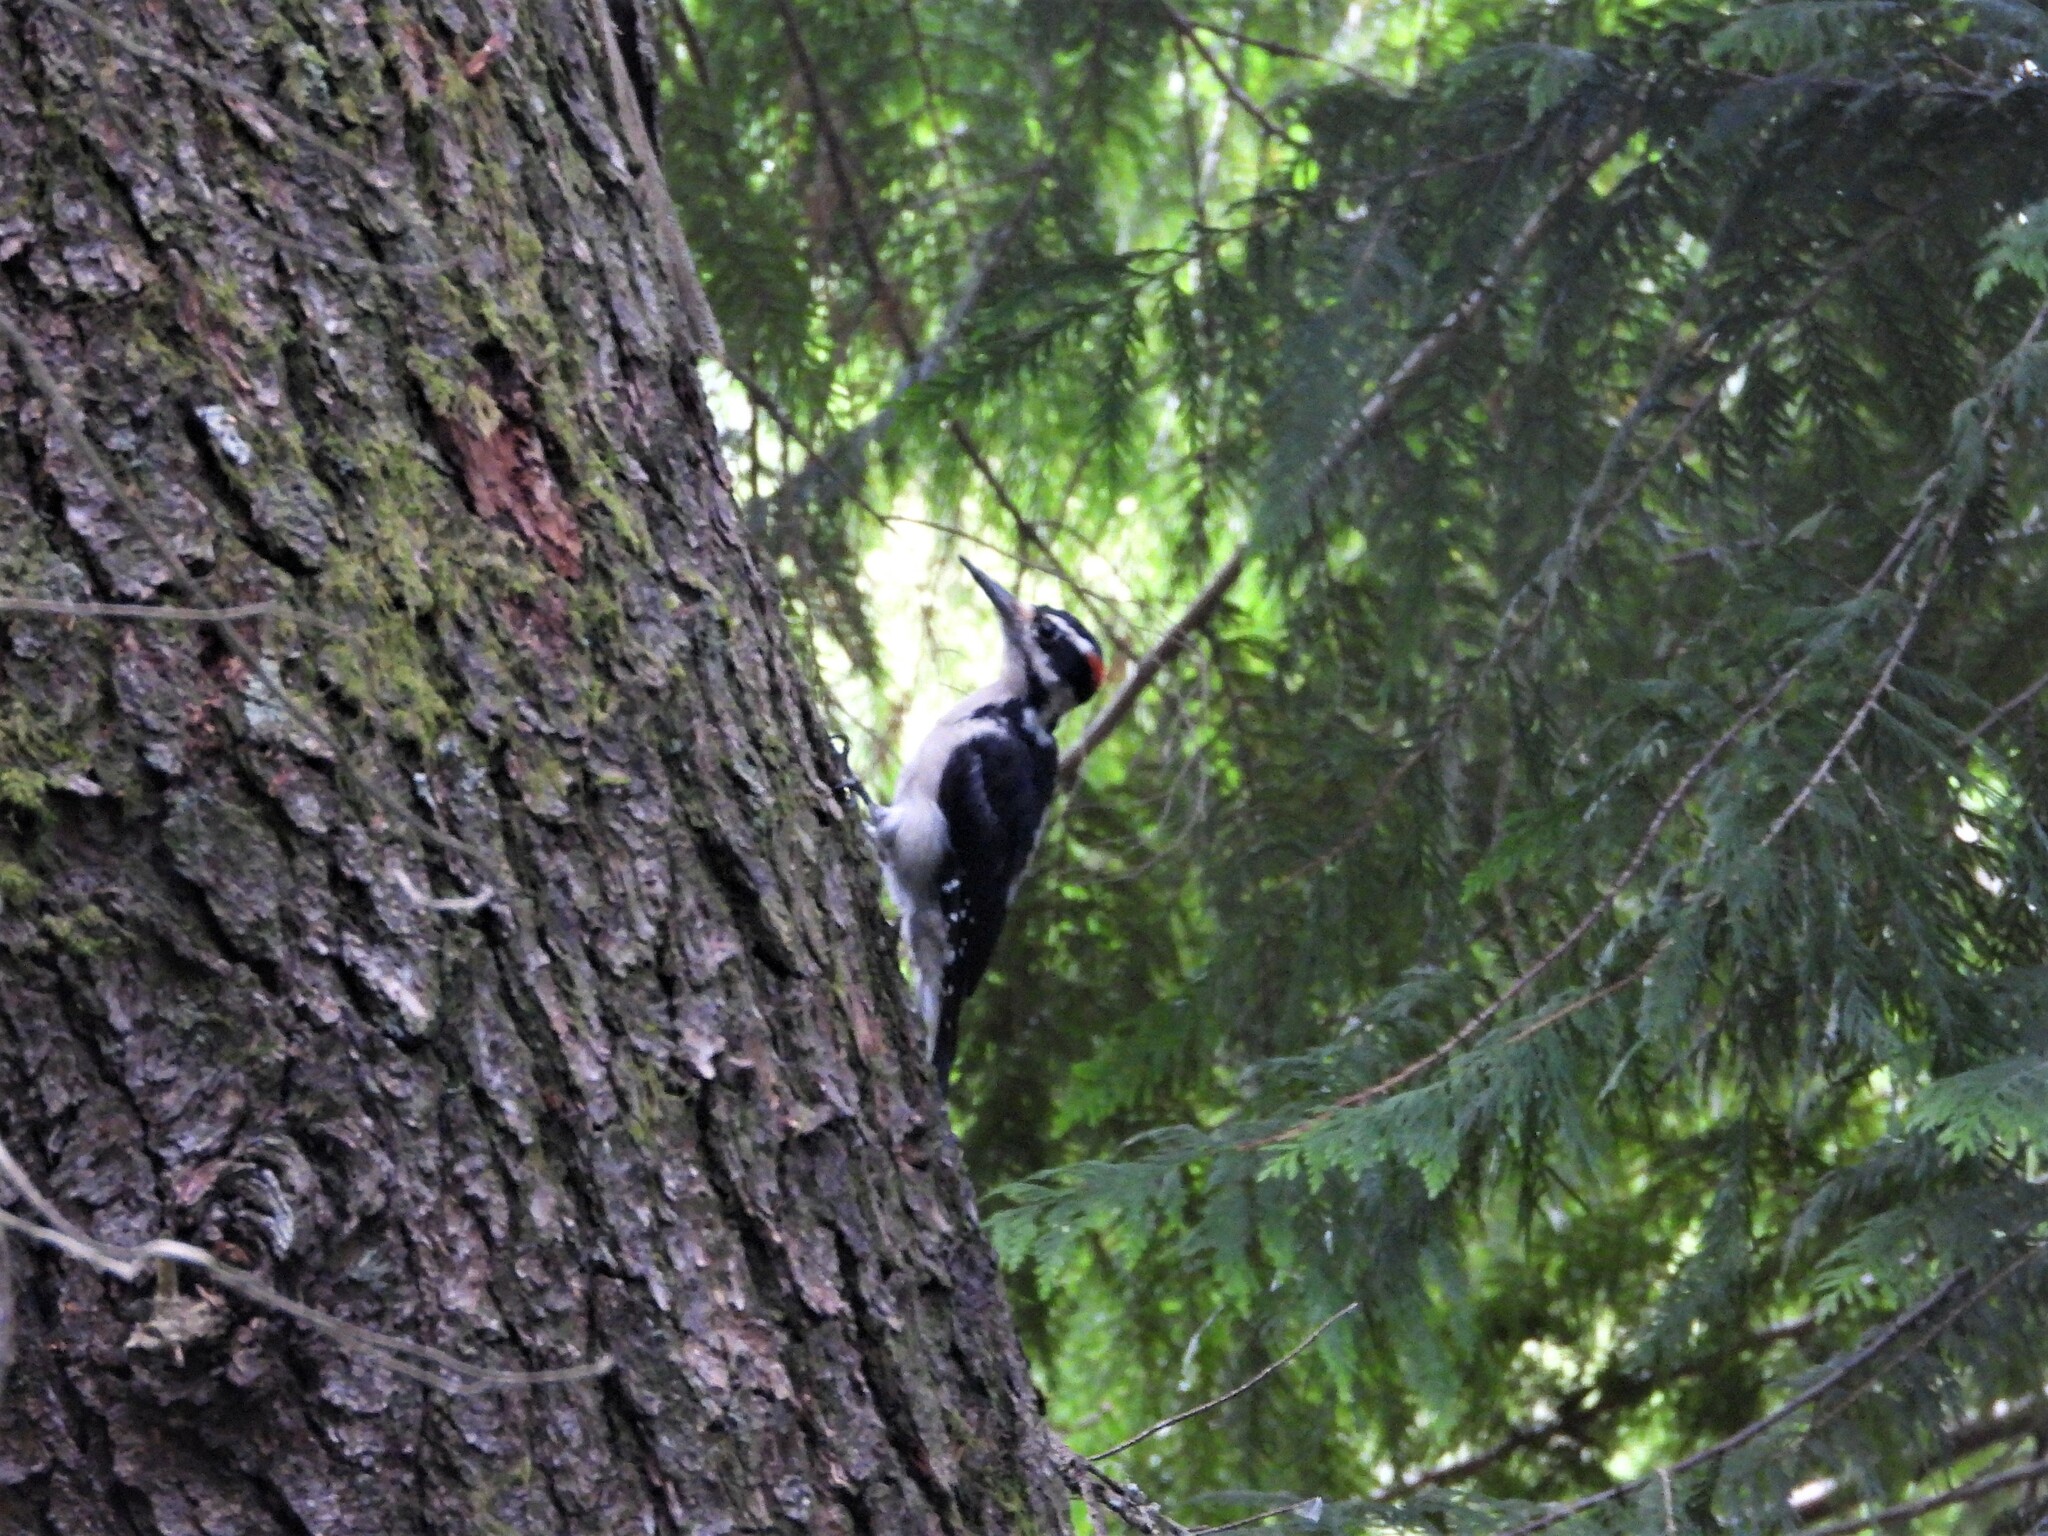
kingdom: Animalia
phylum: Chordata
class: Aves
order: Piciformes
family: Picidae
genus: Leuconotopicus
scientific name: Leuconotopicus villosus
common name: Hairy woodpecker
